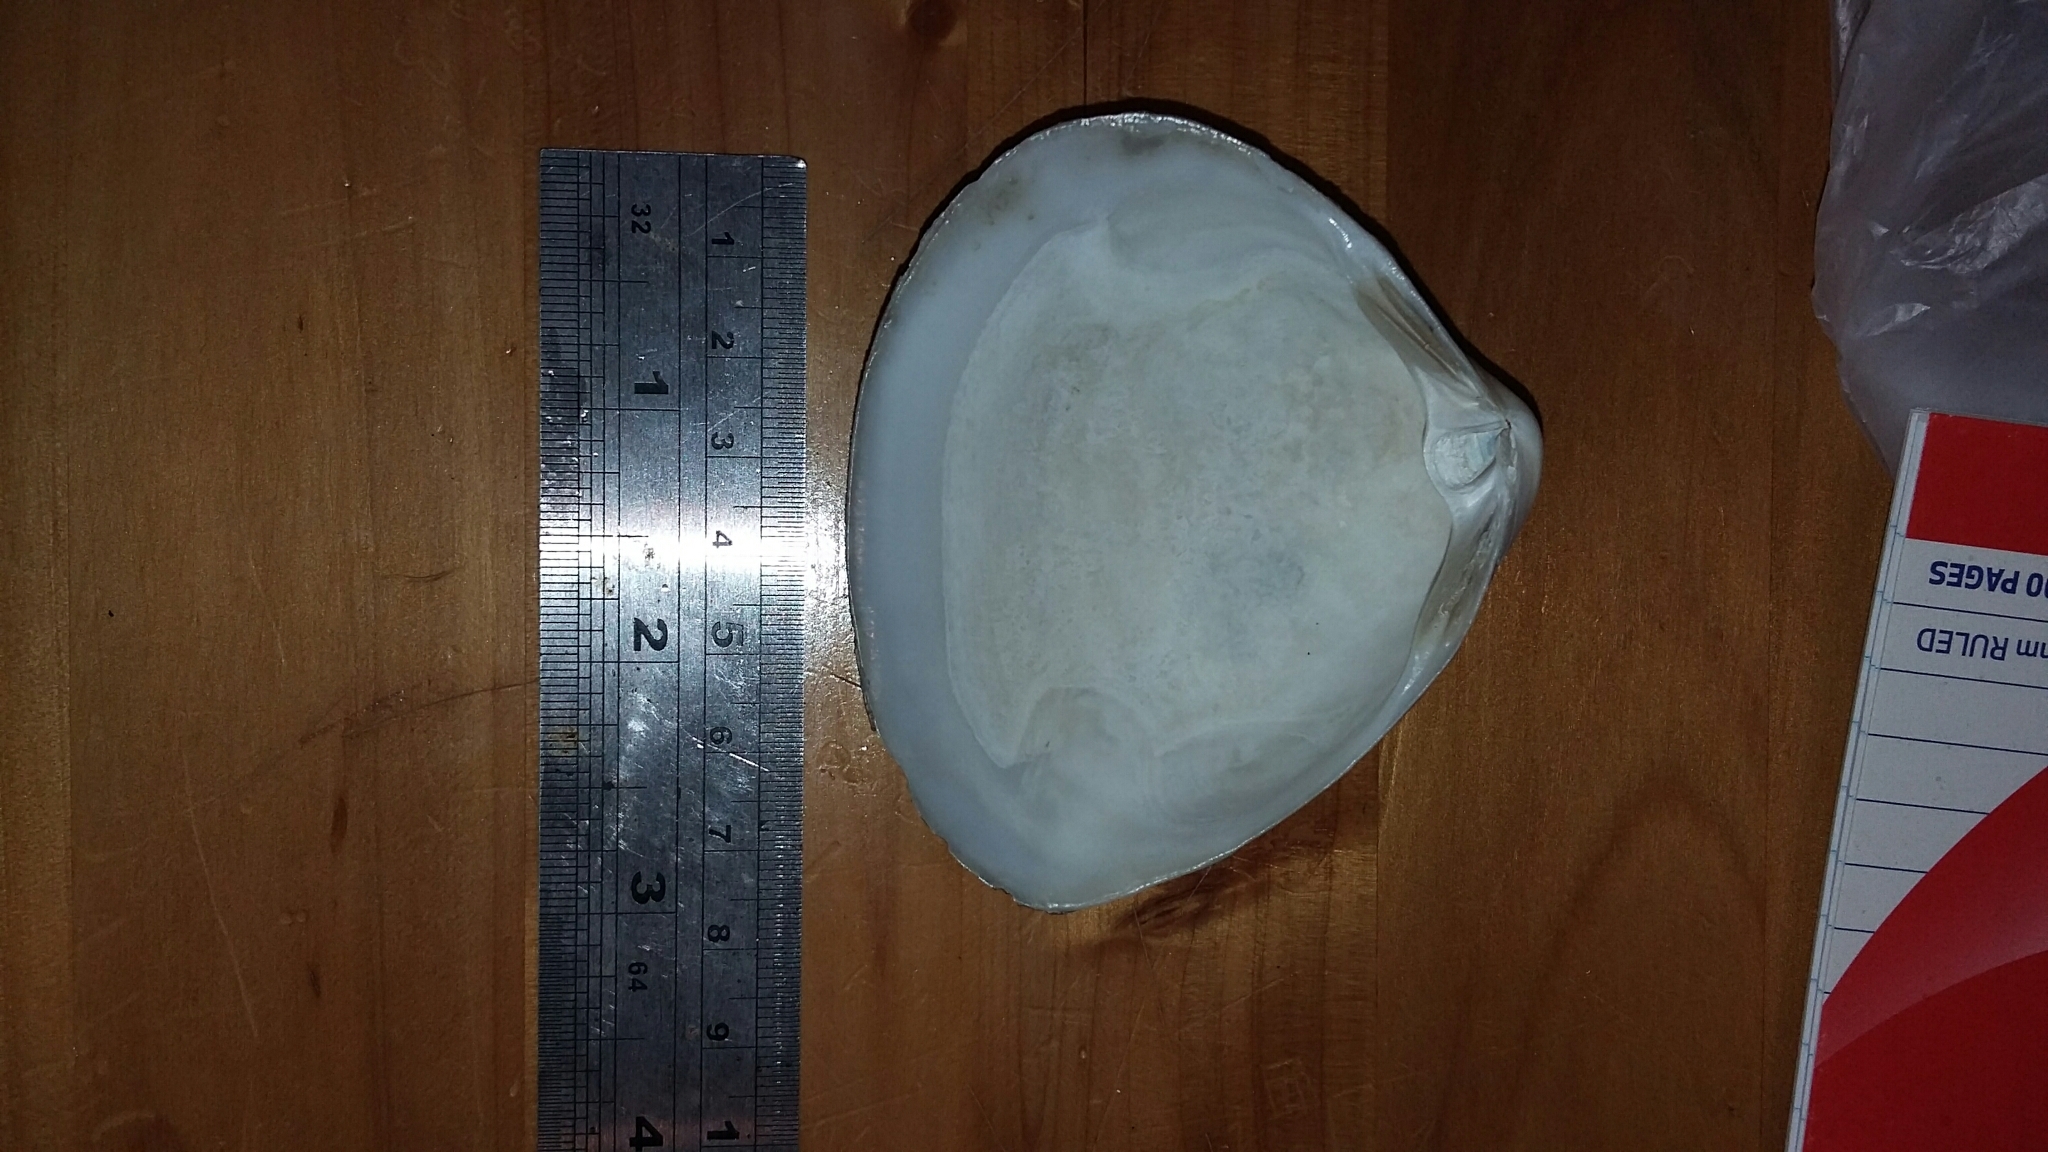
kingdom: Animalia
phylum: Mollusca
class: Bivalvia
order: Venerida
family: Mactridae
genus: Spisula
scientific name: Spisula murchisoni
